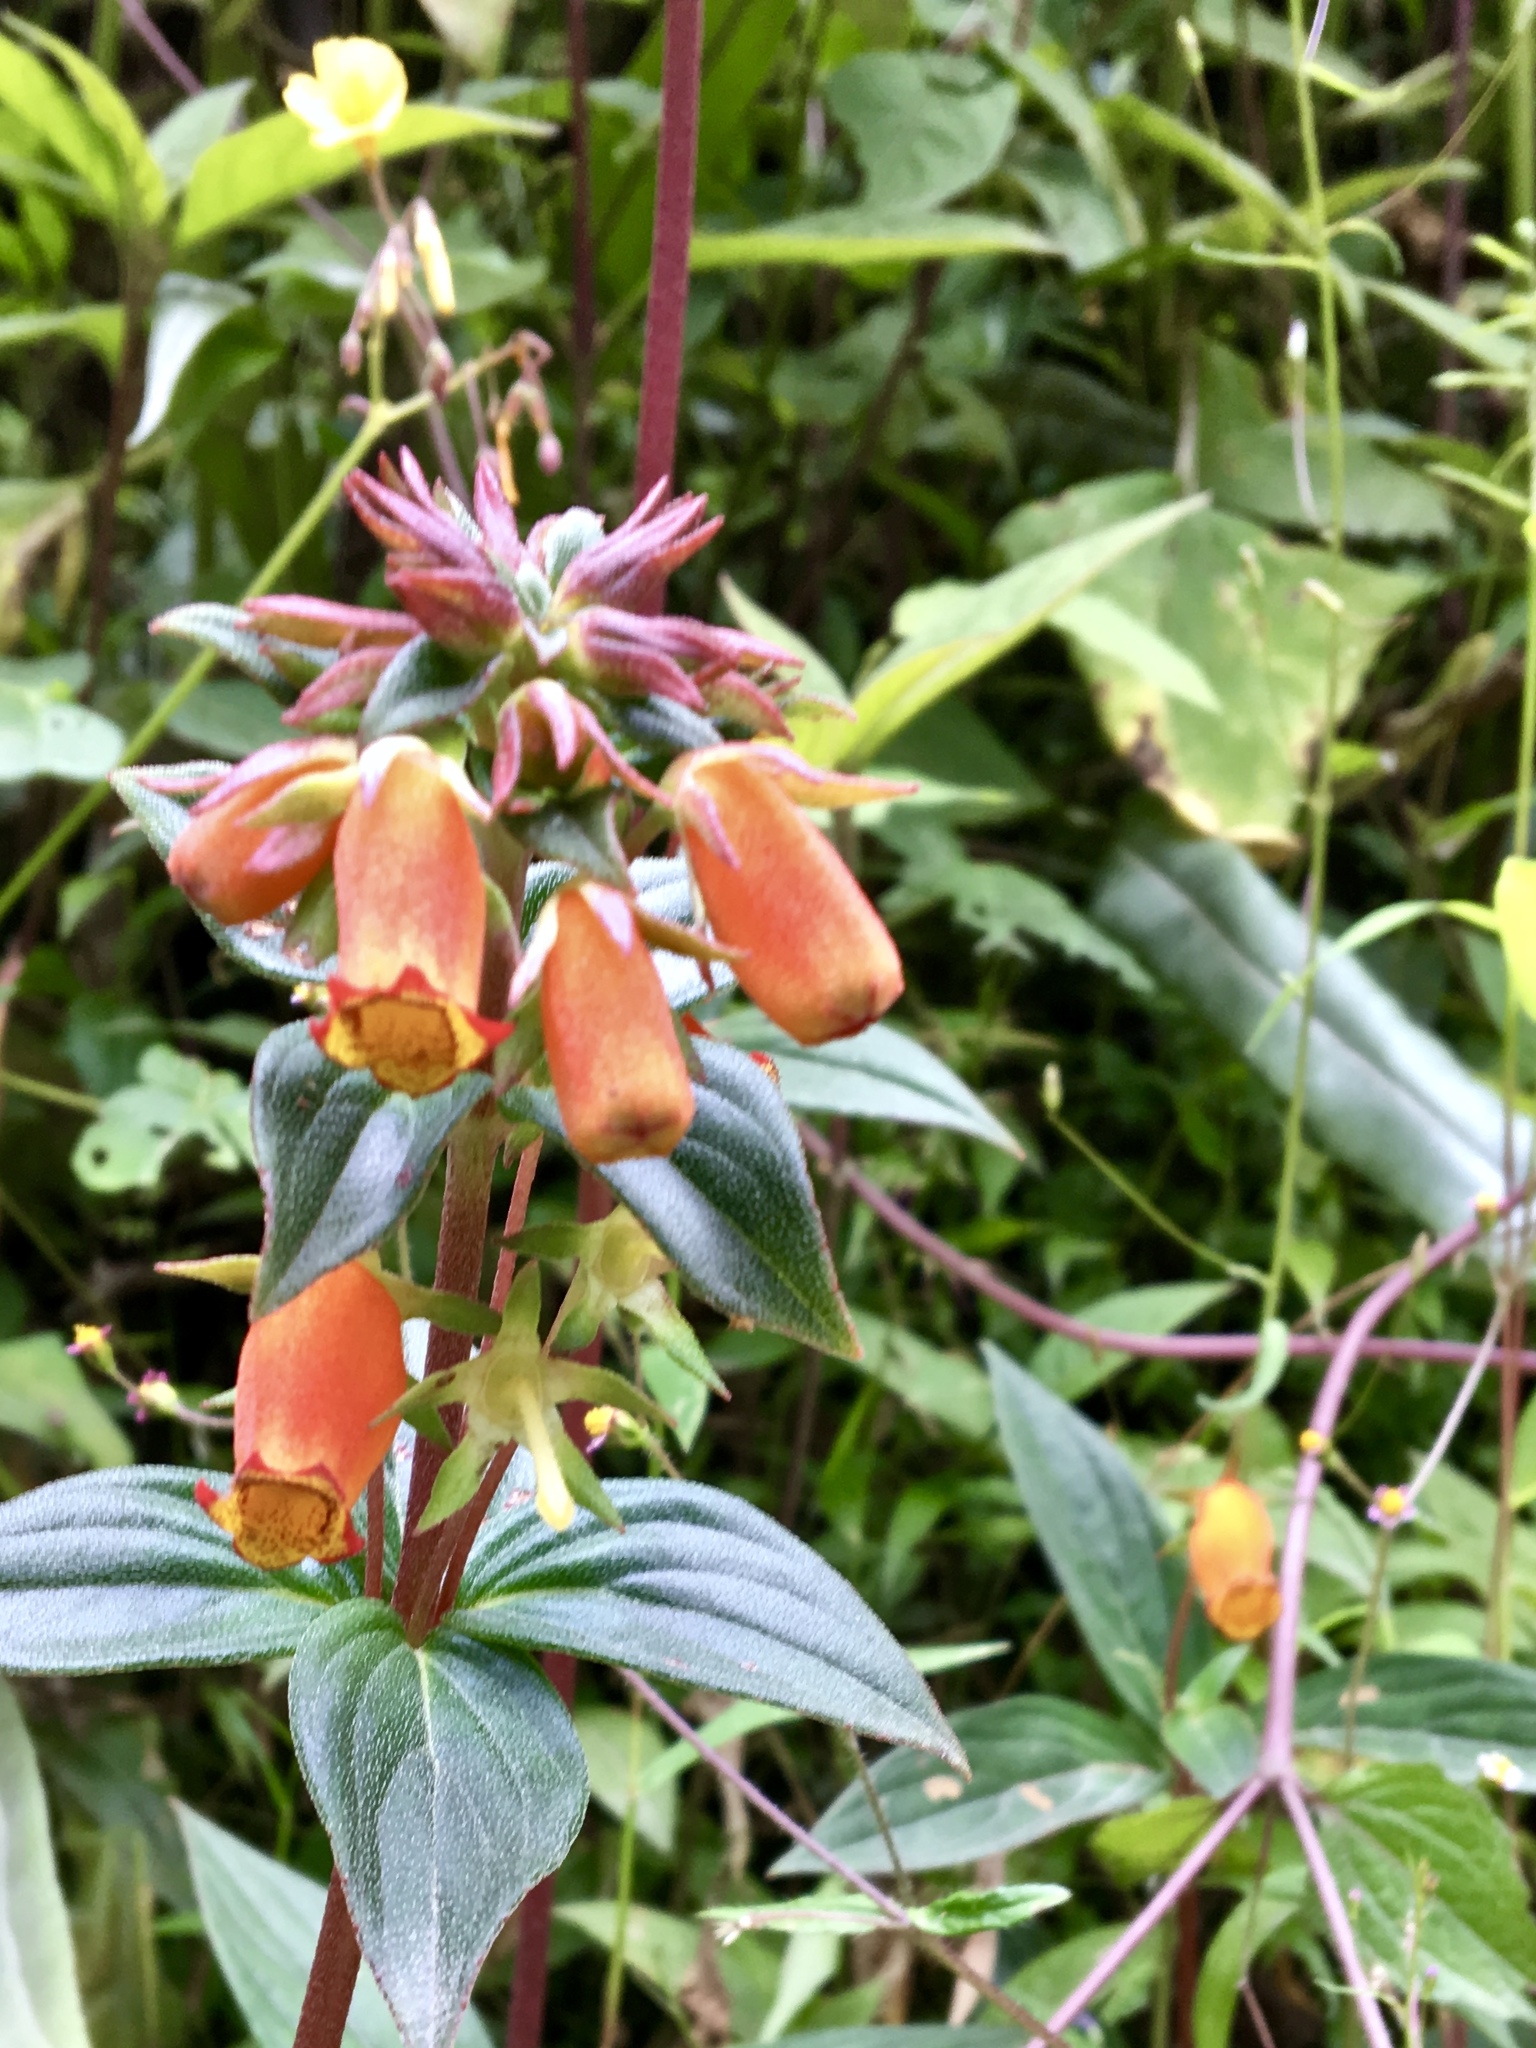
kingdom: Plantae
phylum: Tracheophyta
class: Magnoliopsida
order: Lamiales
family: Gesneriaceae
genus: Seemannia
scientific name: Seemannia sylvatica
